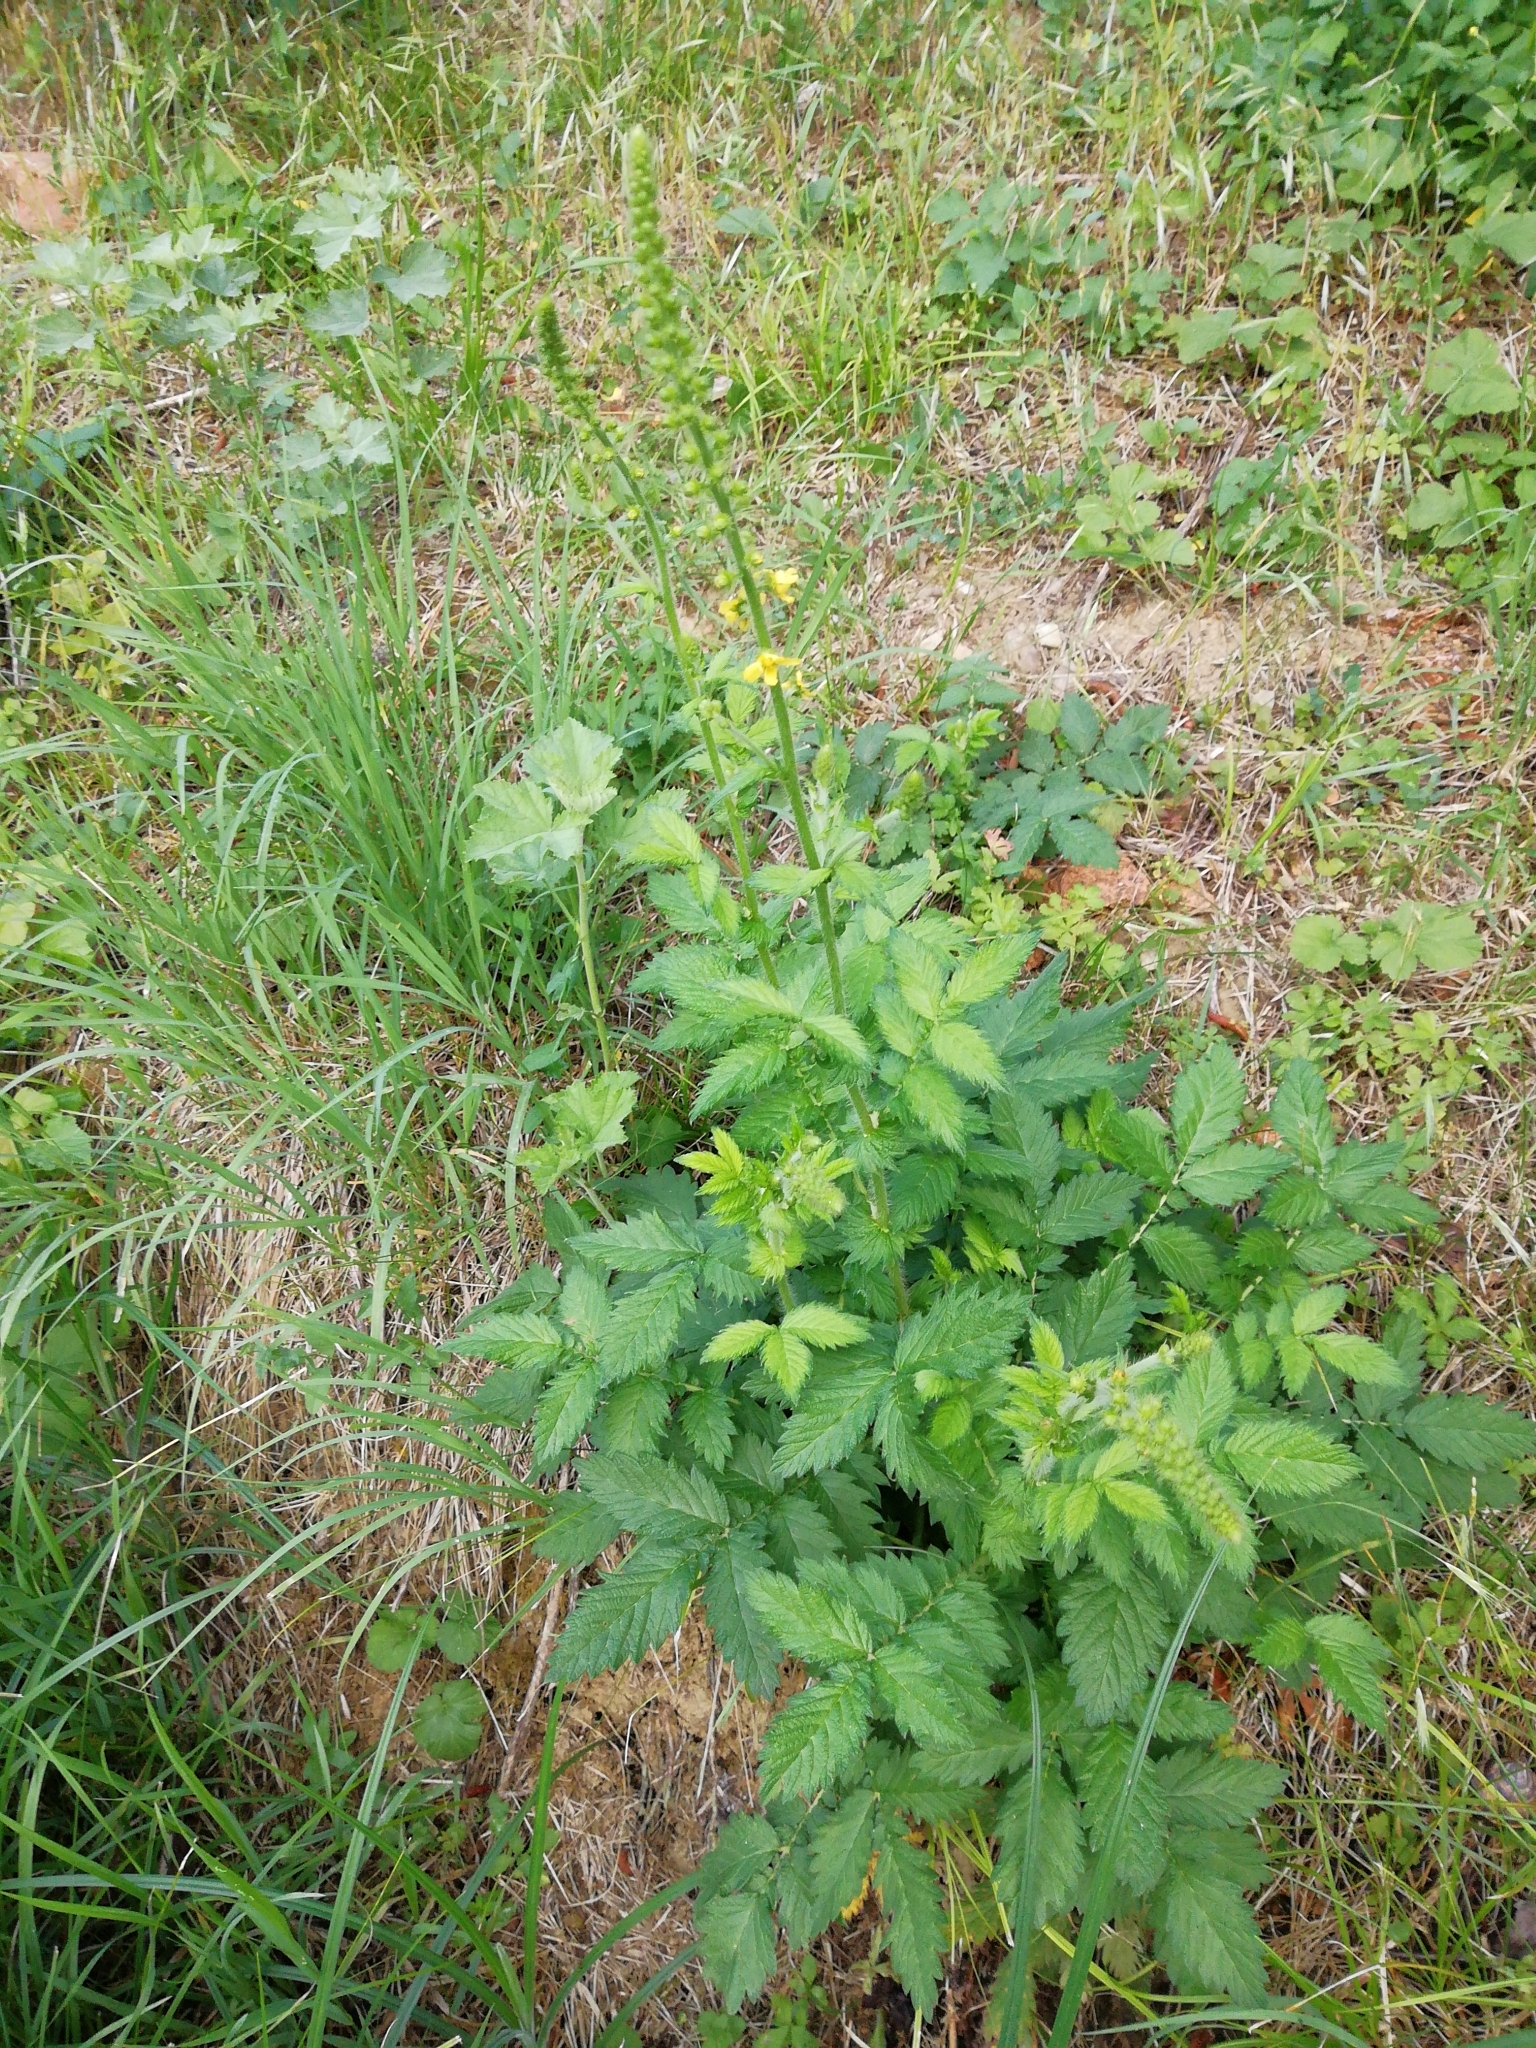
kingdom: Plantae
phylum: Tracheophyta
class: Magnoliopsida
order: Rosales
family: Rosaceae
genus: Agrimonia
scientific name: Agrimonia eupatoria
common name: Agrimony
